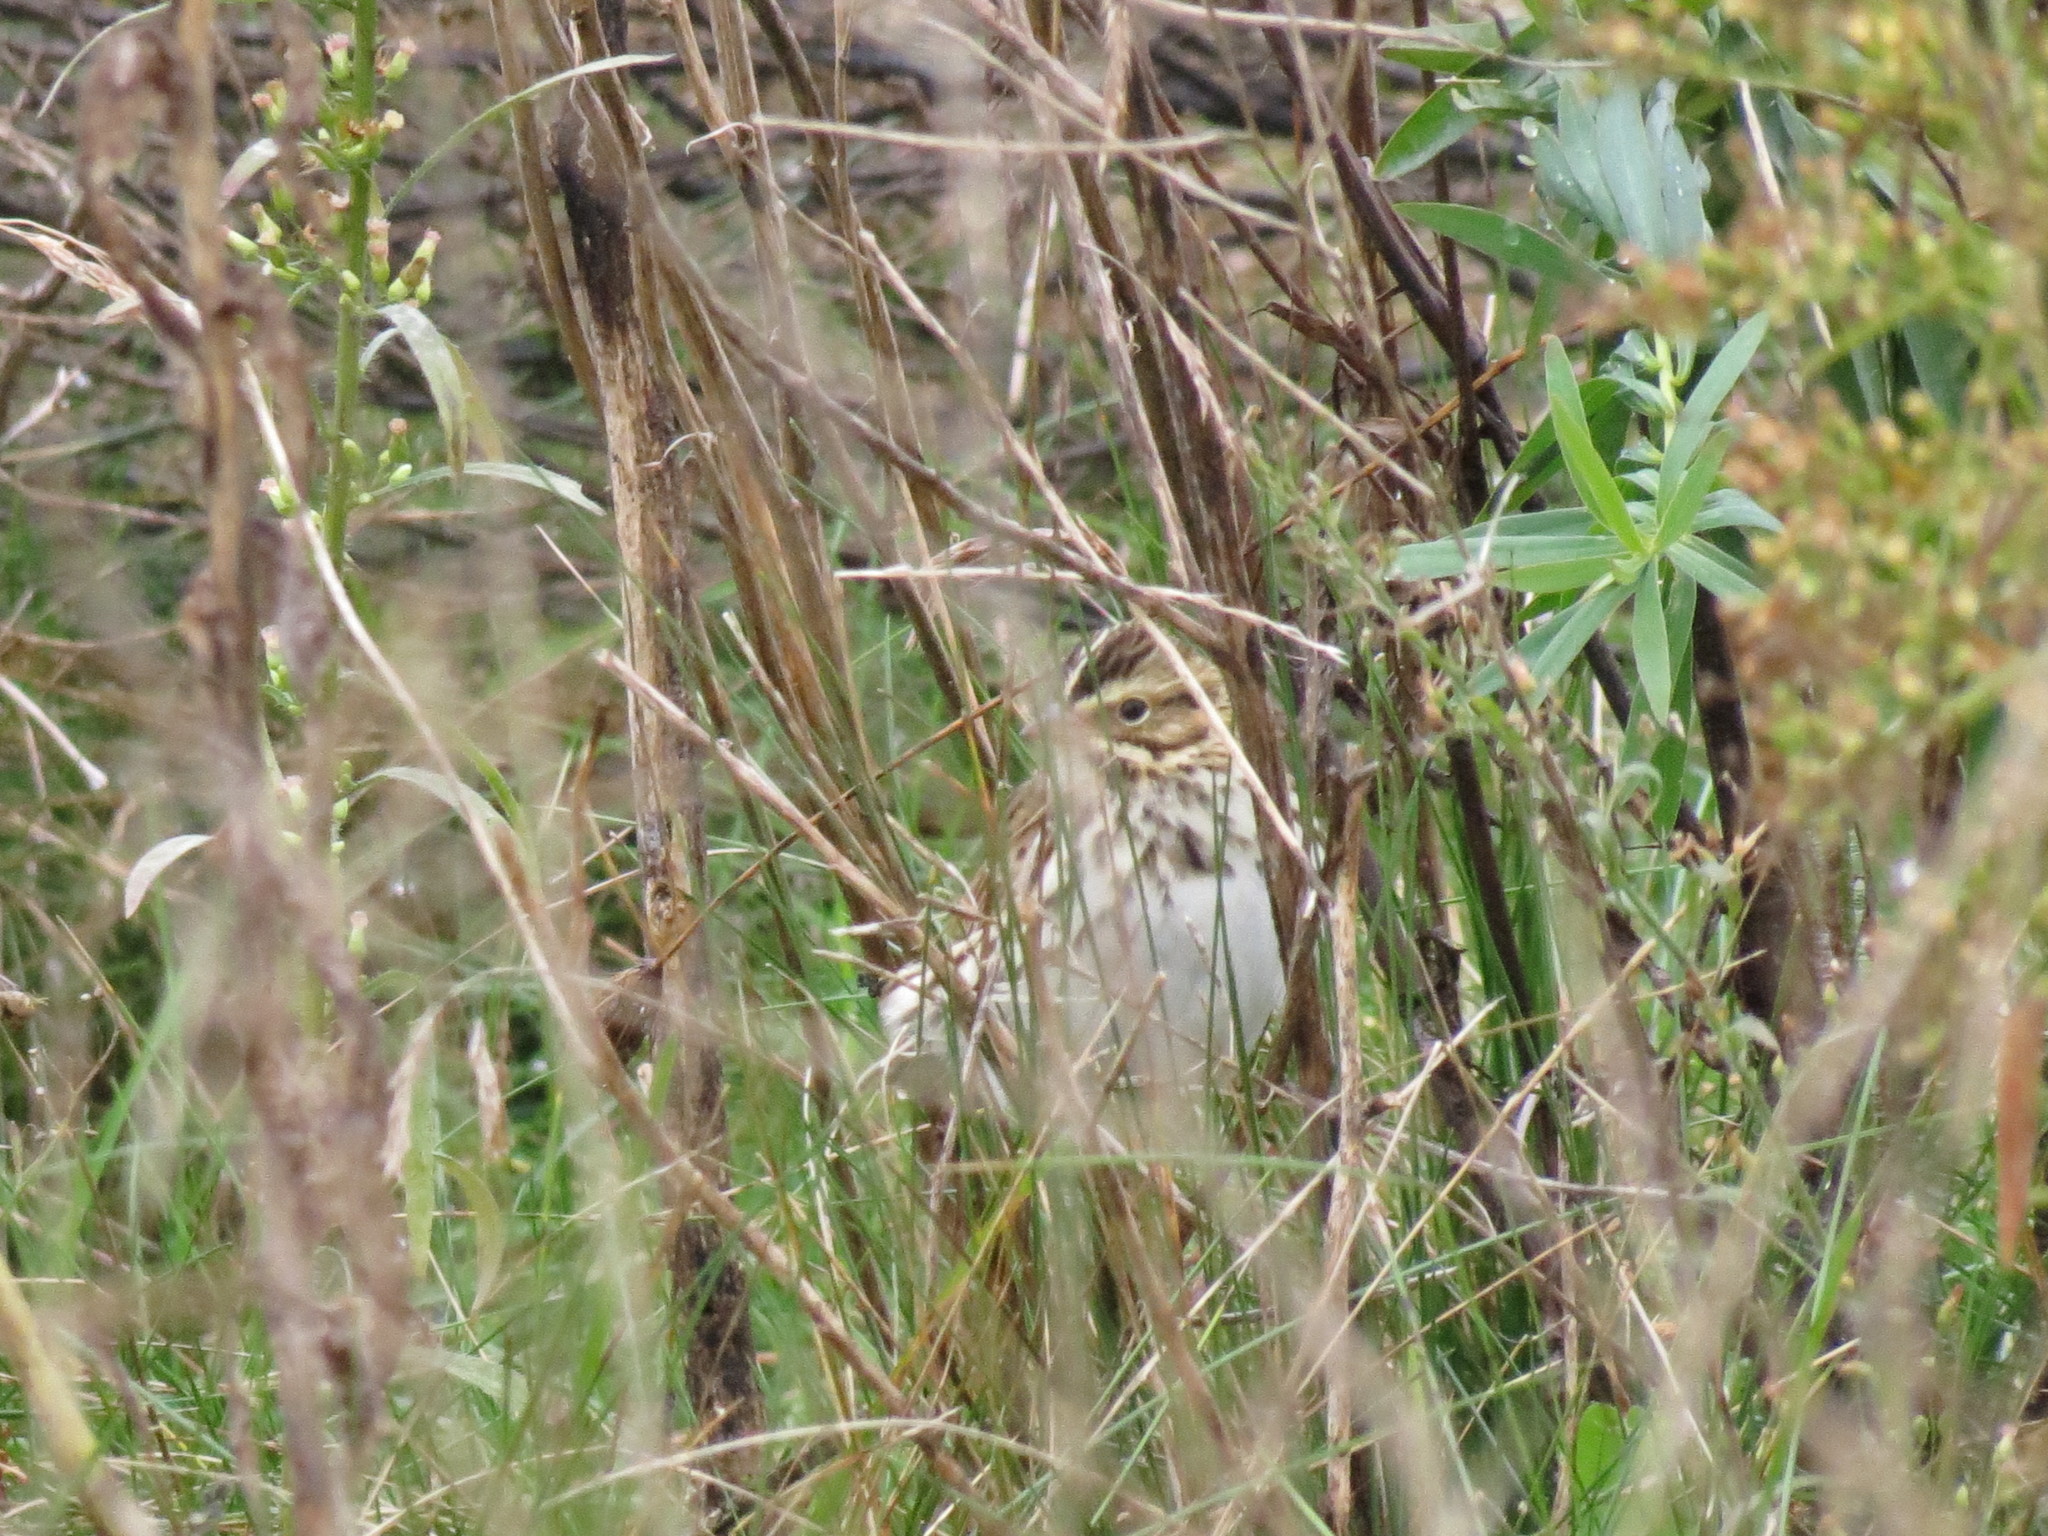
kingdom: Animalia
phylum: Chordata
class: Aves
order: Passeriformes
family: Passerellidae
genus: Passerculus
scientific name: Passerculus sandwichensis
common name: Savannah sparrow
